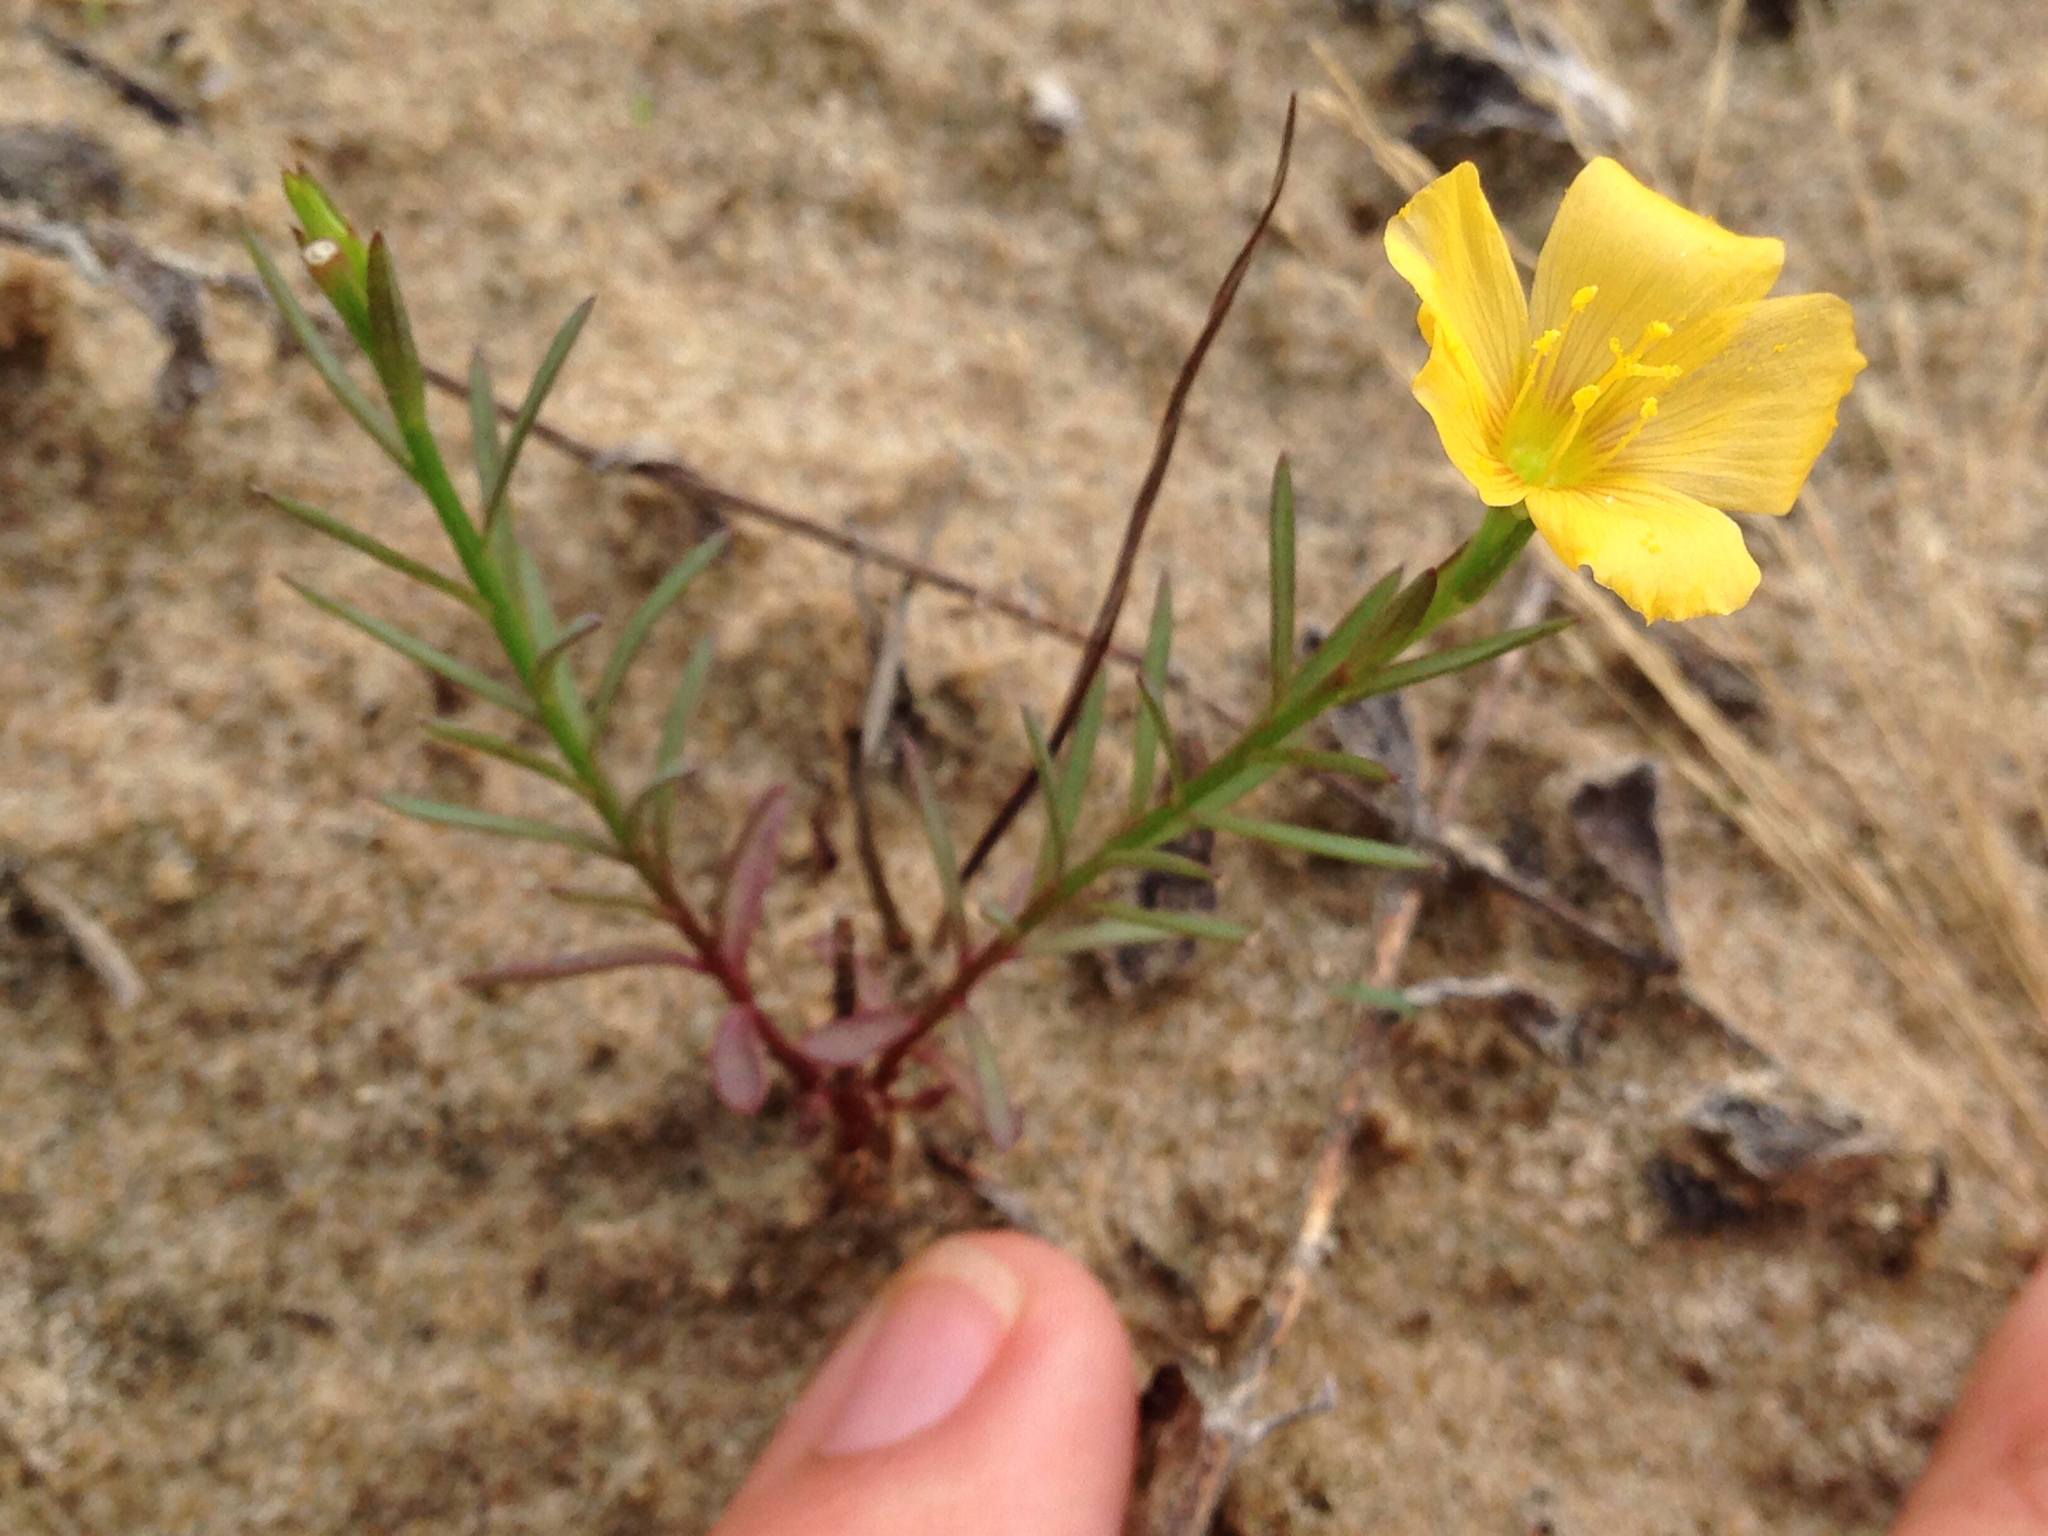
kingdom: Plantae
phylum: Tracheophyta
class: Magnoliopsida
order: Malpighiales
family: Linaceae
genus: Linum
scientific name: Linum alatum
